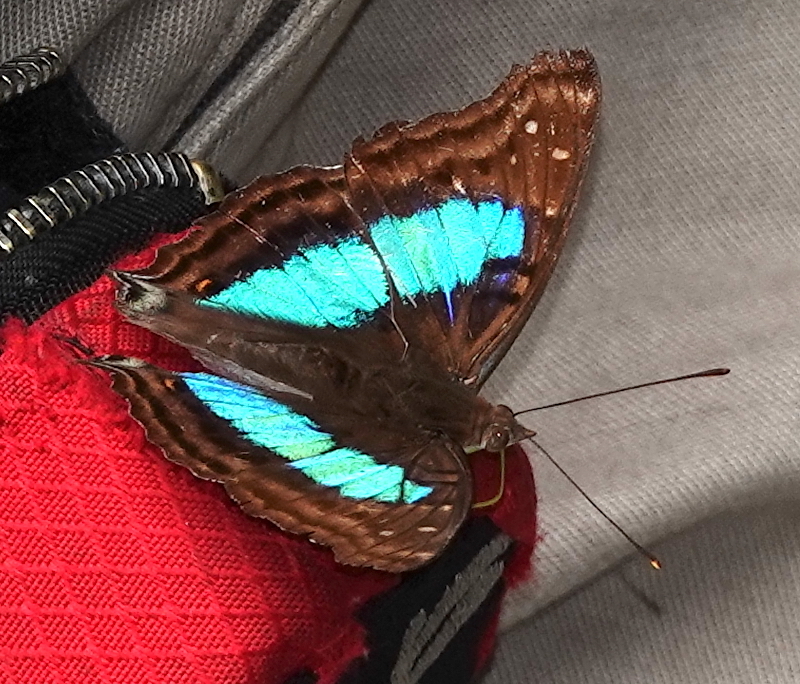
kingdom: Animalia
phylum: Arthropoda
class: Insecta
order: Lepidoptera
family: Nymphalidae
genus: Doxocopa
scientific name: Doxocopa laurentia
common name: Turquoise emperor
